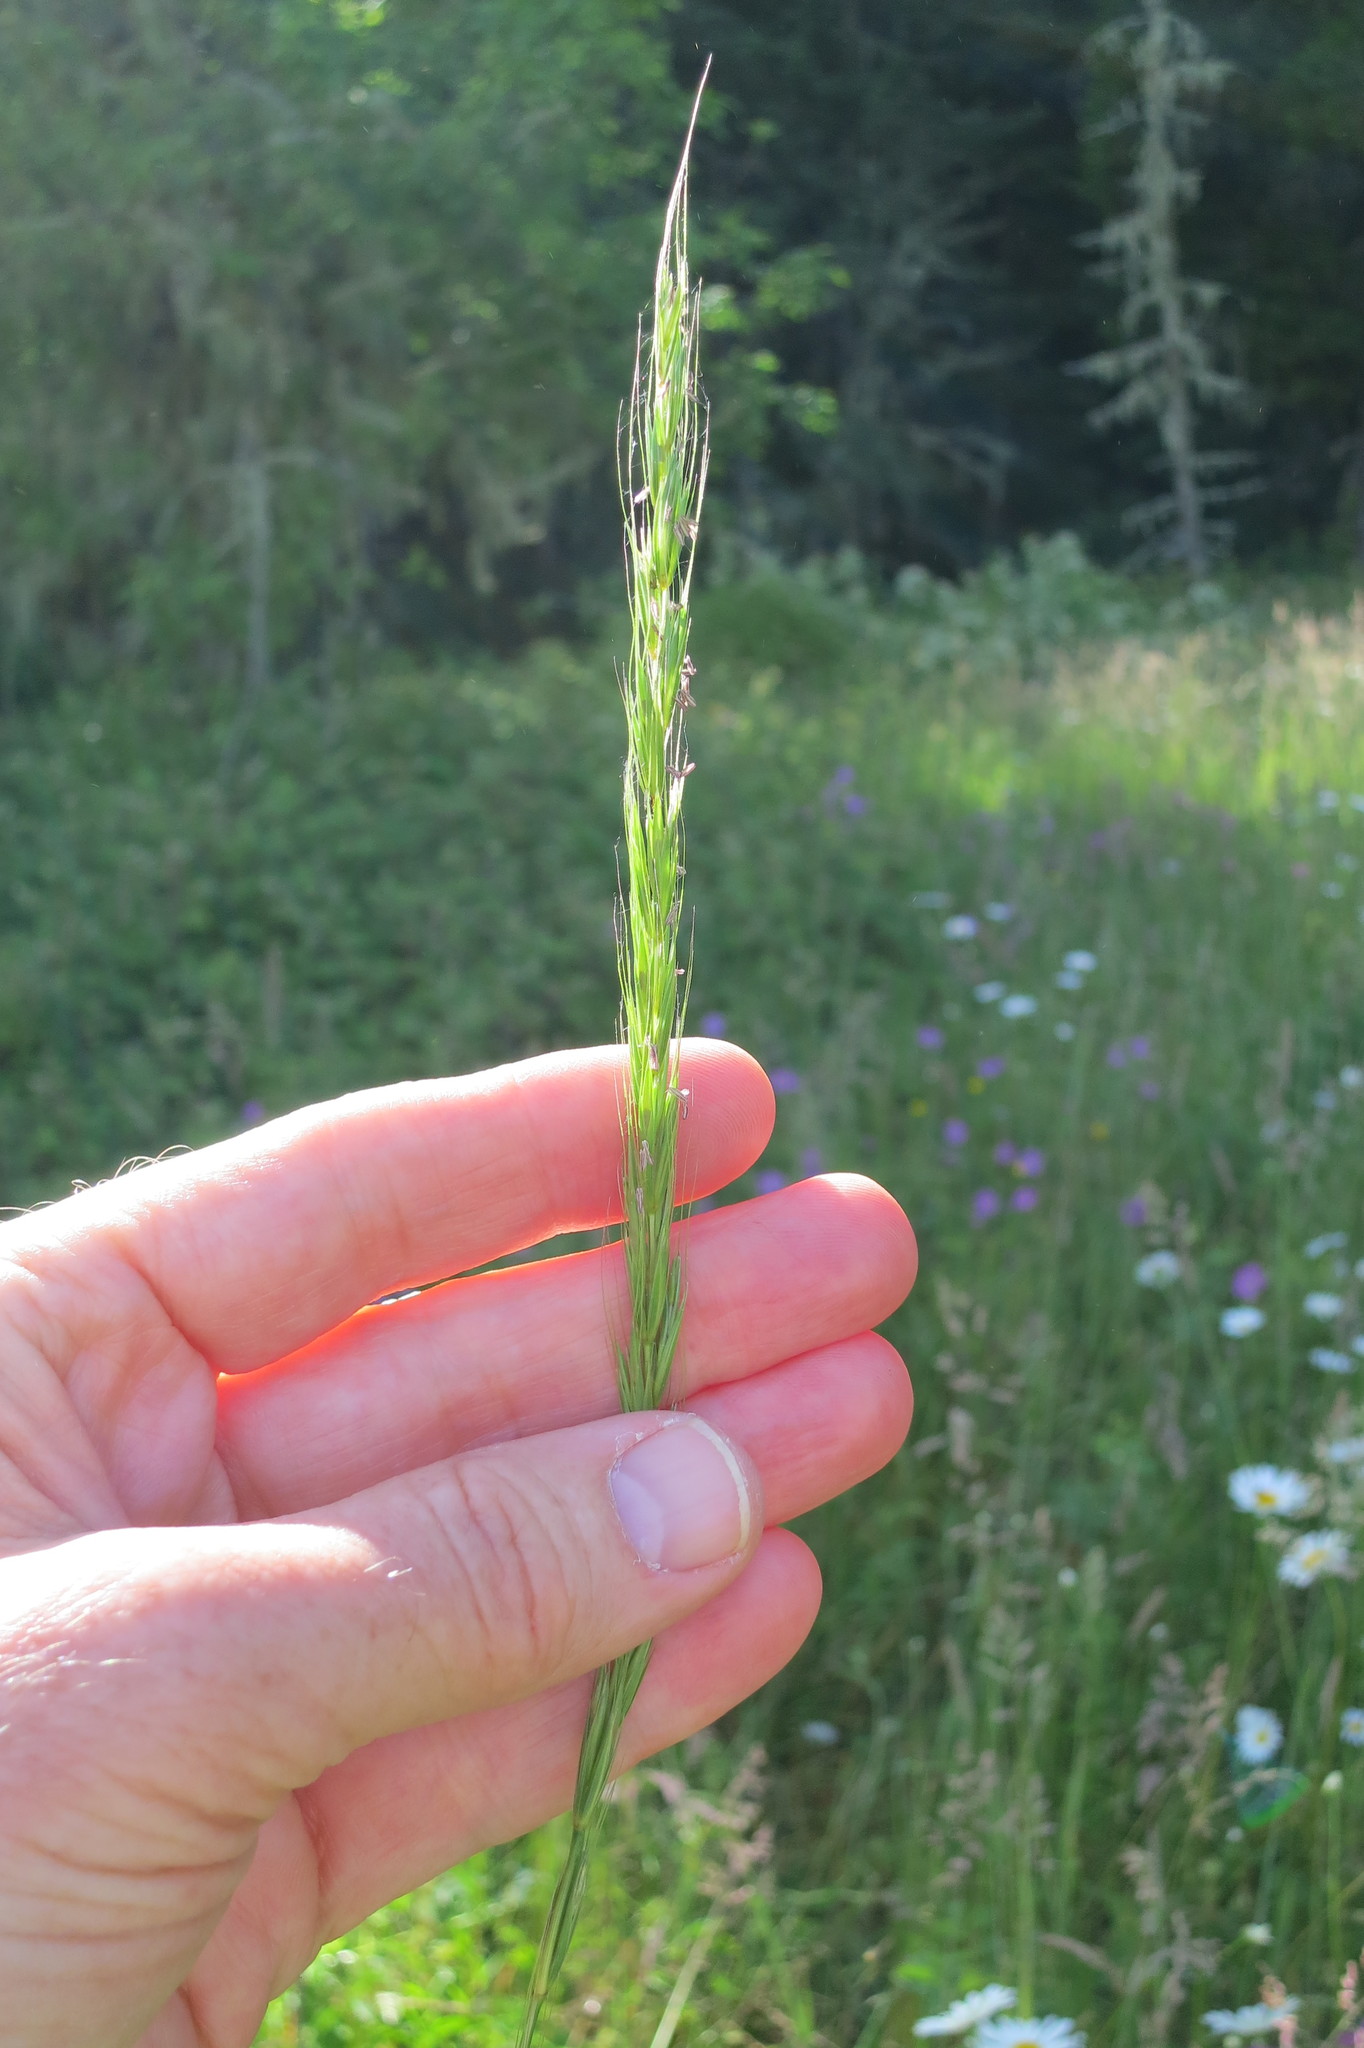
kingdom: Plantae
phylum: Tracheophyta
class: Liliopsida
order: Poales
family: Poaceae
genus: Elymus
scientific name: Elymus glaucus
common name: Blue wild rye
